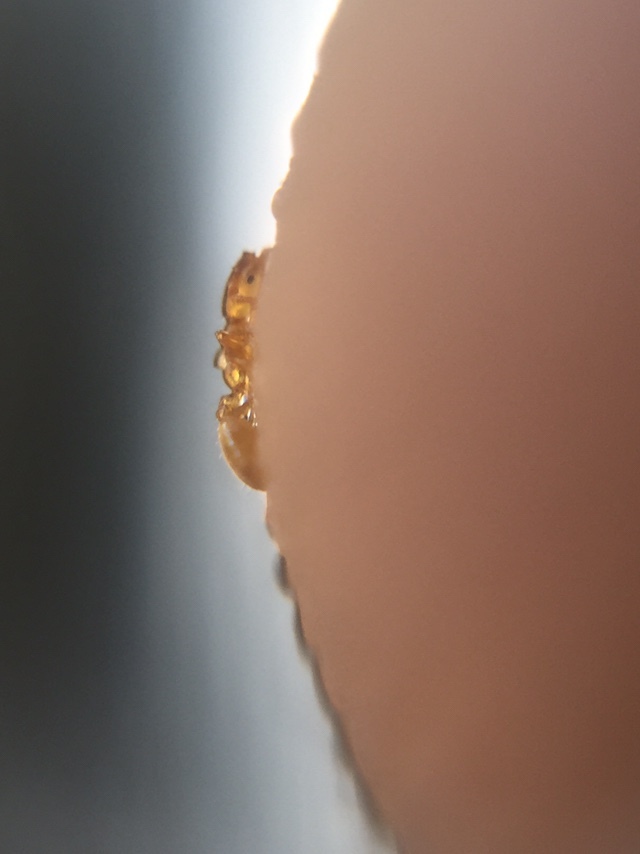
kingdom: Animalia
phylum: Arthropoda
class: Insecta
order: Hymenoptera
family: Formicidae
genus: Monomorium
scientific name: Monomorium atomum
